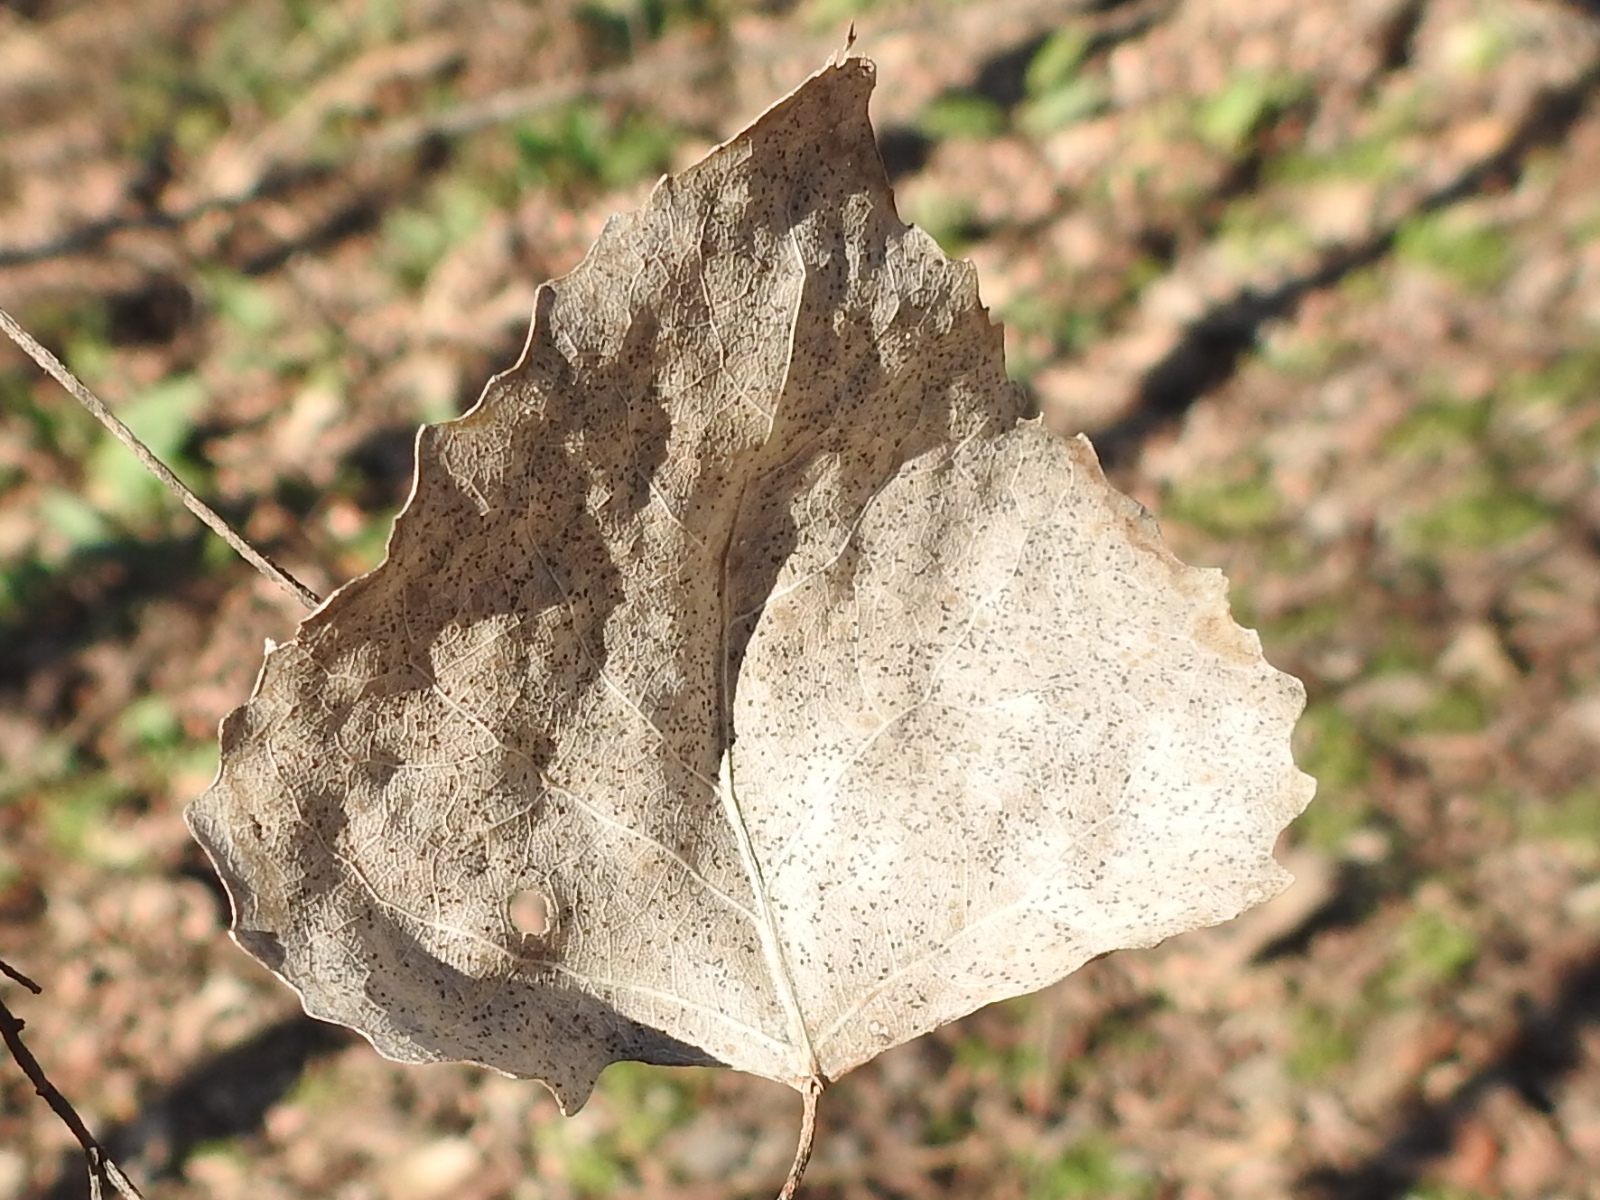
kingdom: Plantae
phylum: Tracheophyta
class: Magnoliopsida
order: Malpighiales
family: Salicaceae
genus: Populus
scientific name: Populus deltoides
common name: Eastern cottonwood
